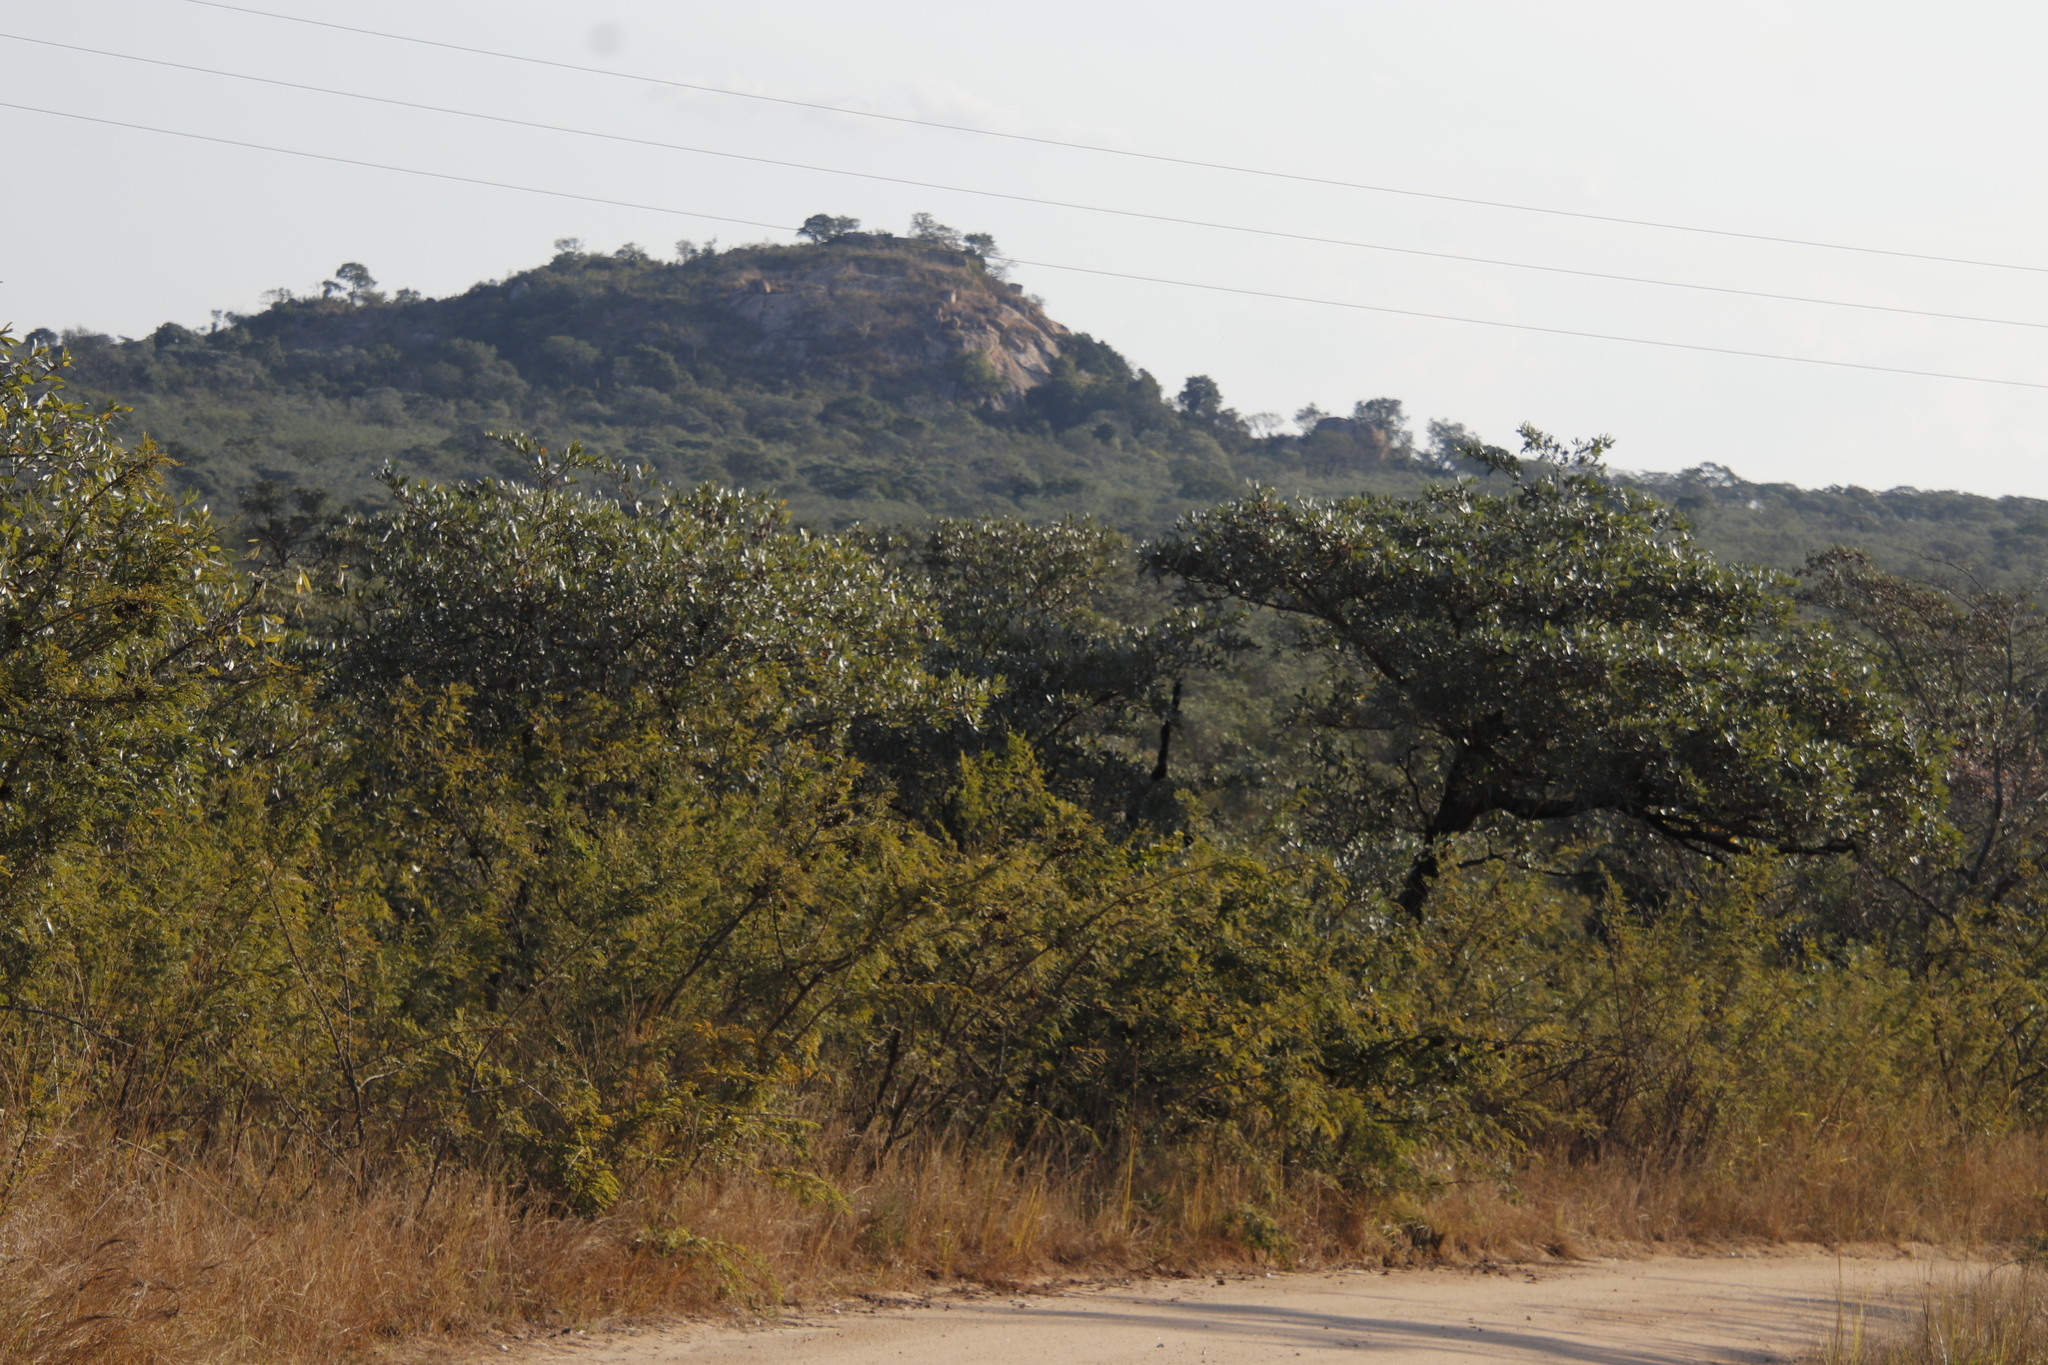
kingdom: Plantae
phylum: Tracheophyta
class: Magnoliopsida
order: Fabales
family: Fabaceae
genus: Dichrostachys
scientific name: Dichrostachys cinerea
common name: Sicklebush
